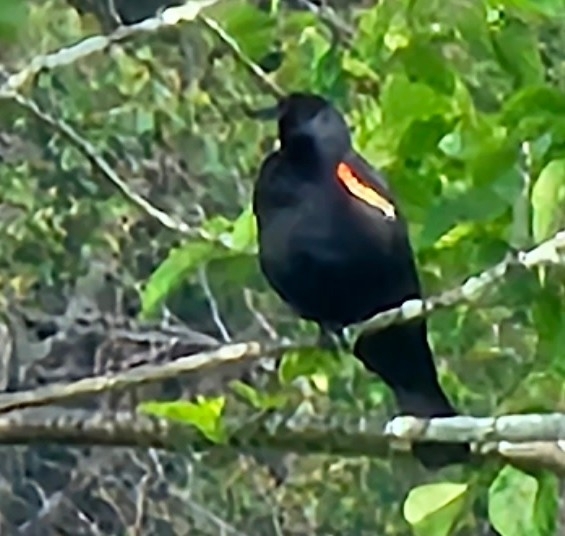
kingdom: Animalia
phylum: Chordata
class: Aves
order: Passeriformes
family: Icteridae
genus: Agelaius
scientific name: Agelaius phoeniceus
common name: Red-winged blackbird
